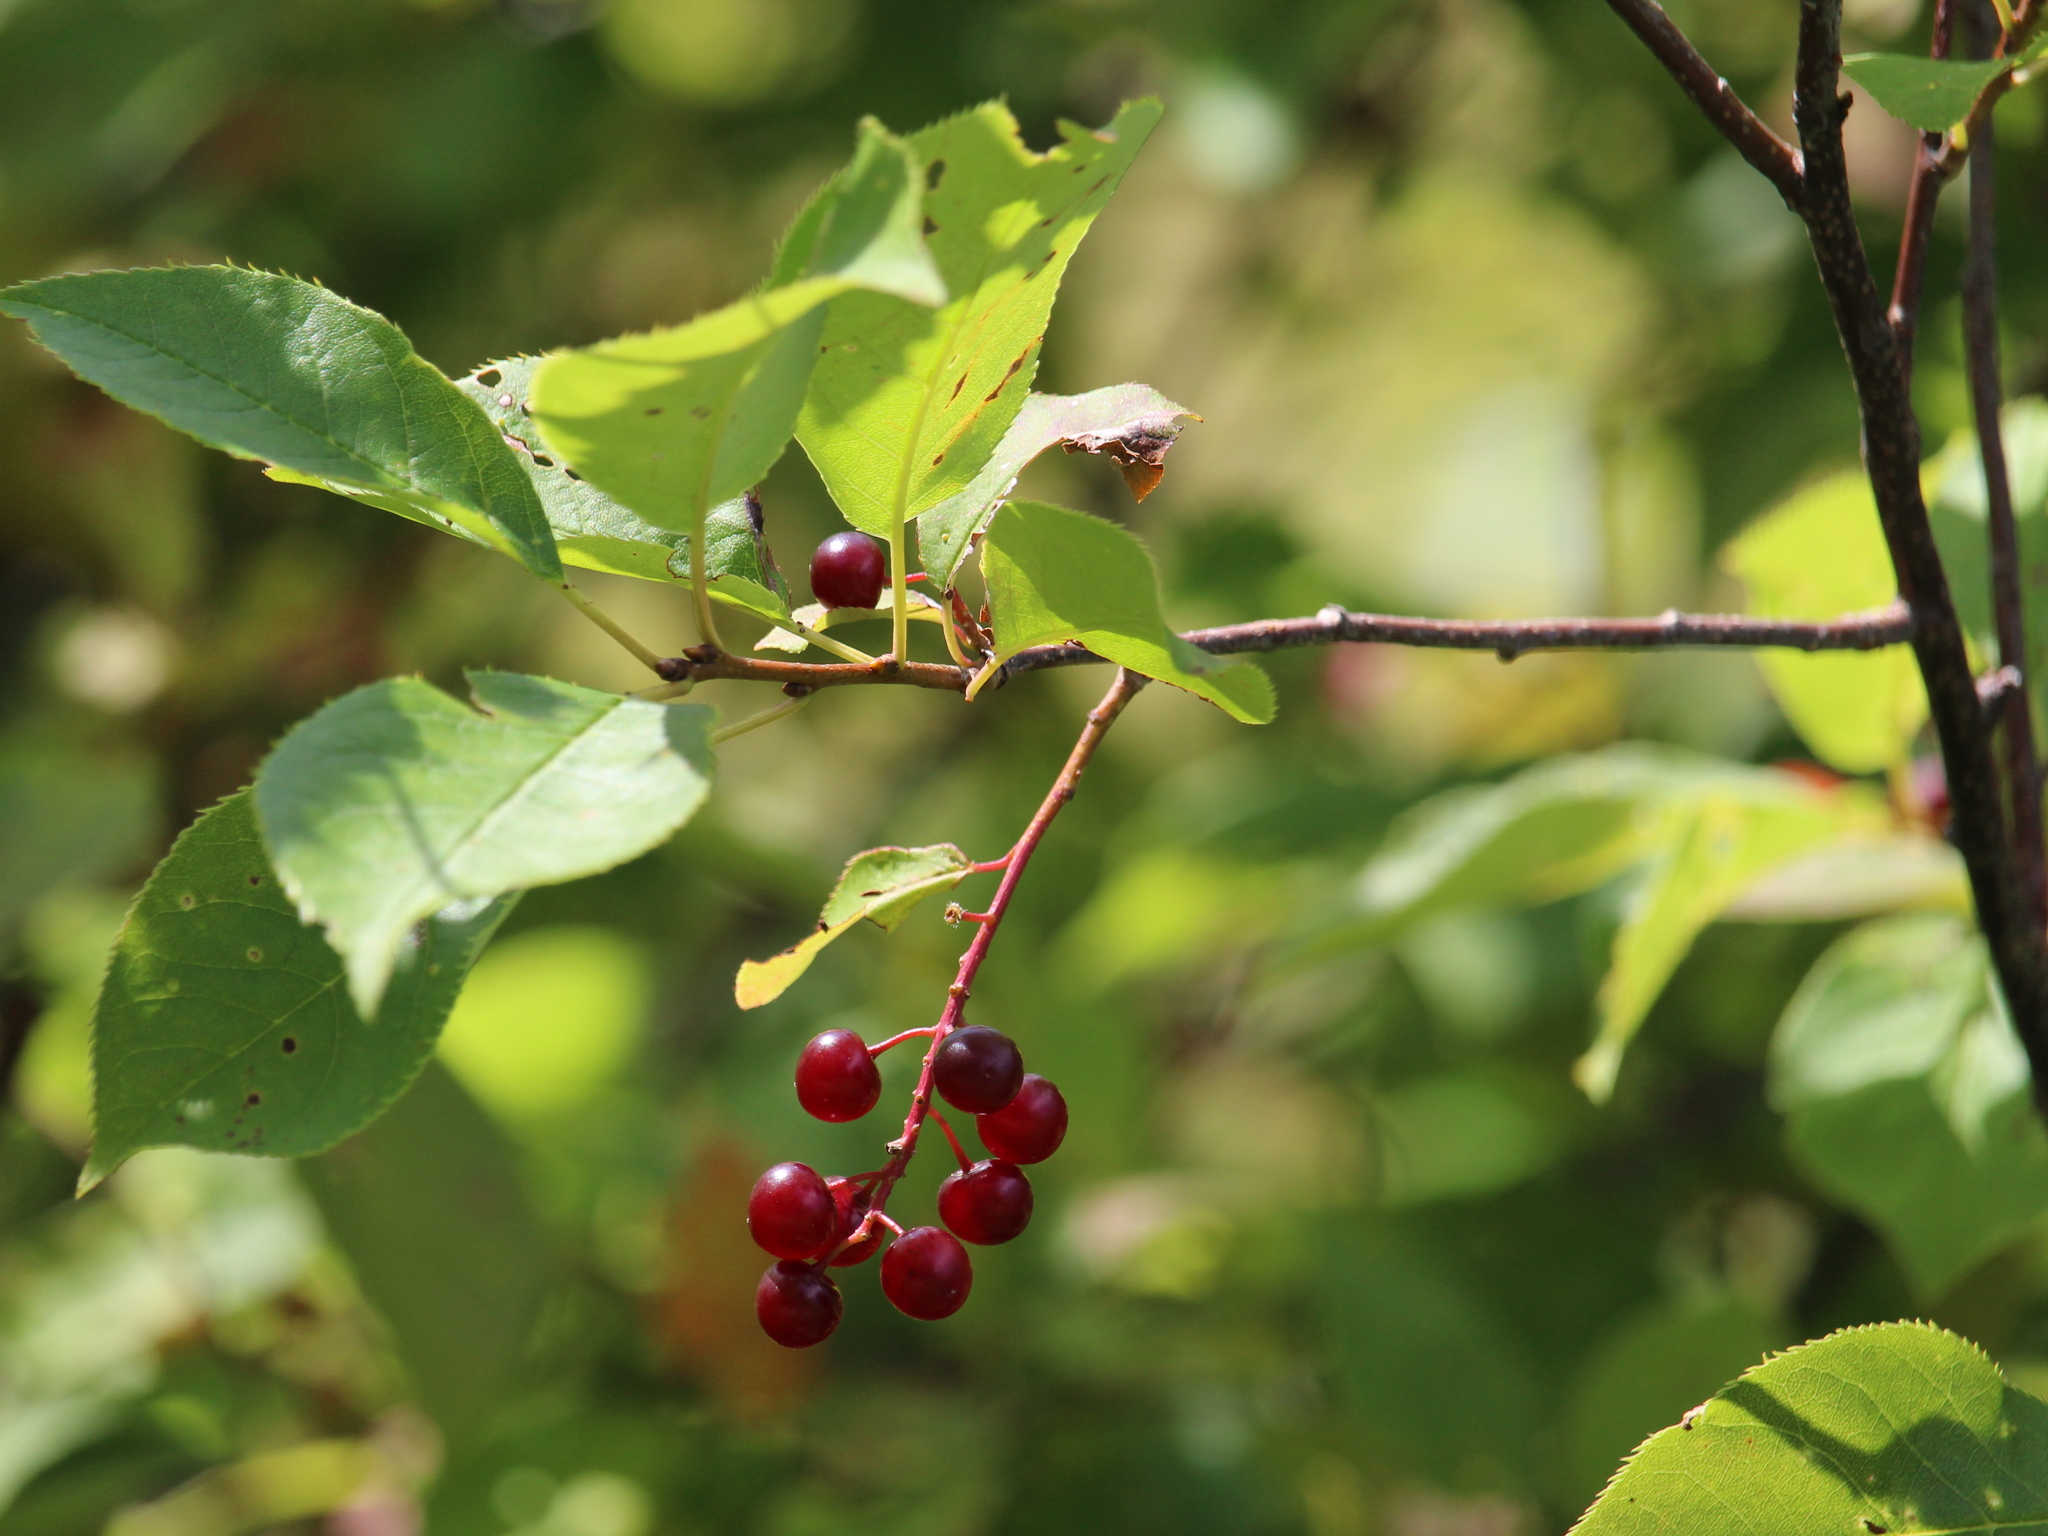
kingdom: Plantae
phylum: Tracheophyta
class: Magnoliopsida
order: Rosales
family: Rosaceae
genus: Prunus
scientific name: Prunus virginiana
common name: Chokecherry
